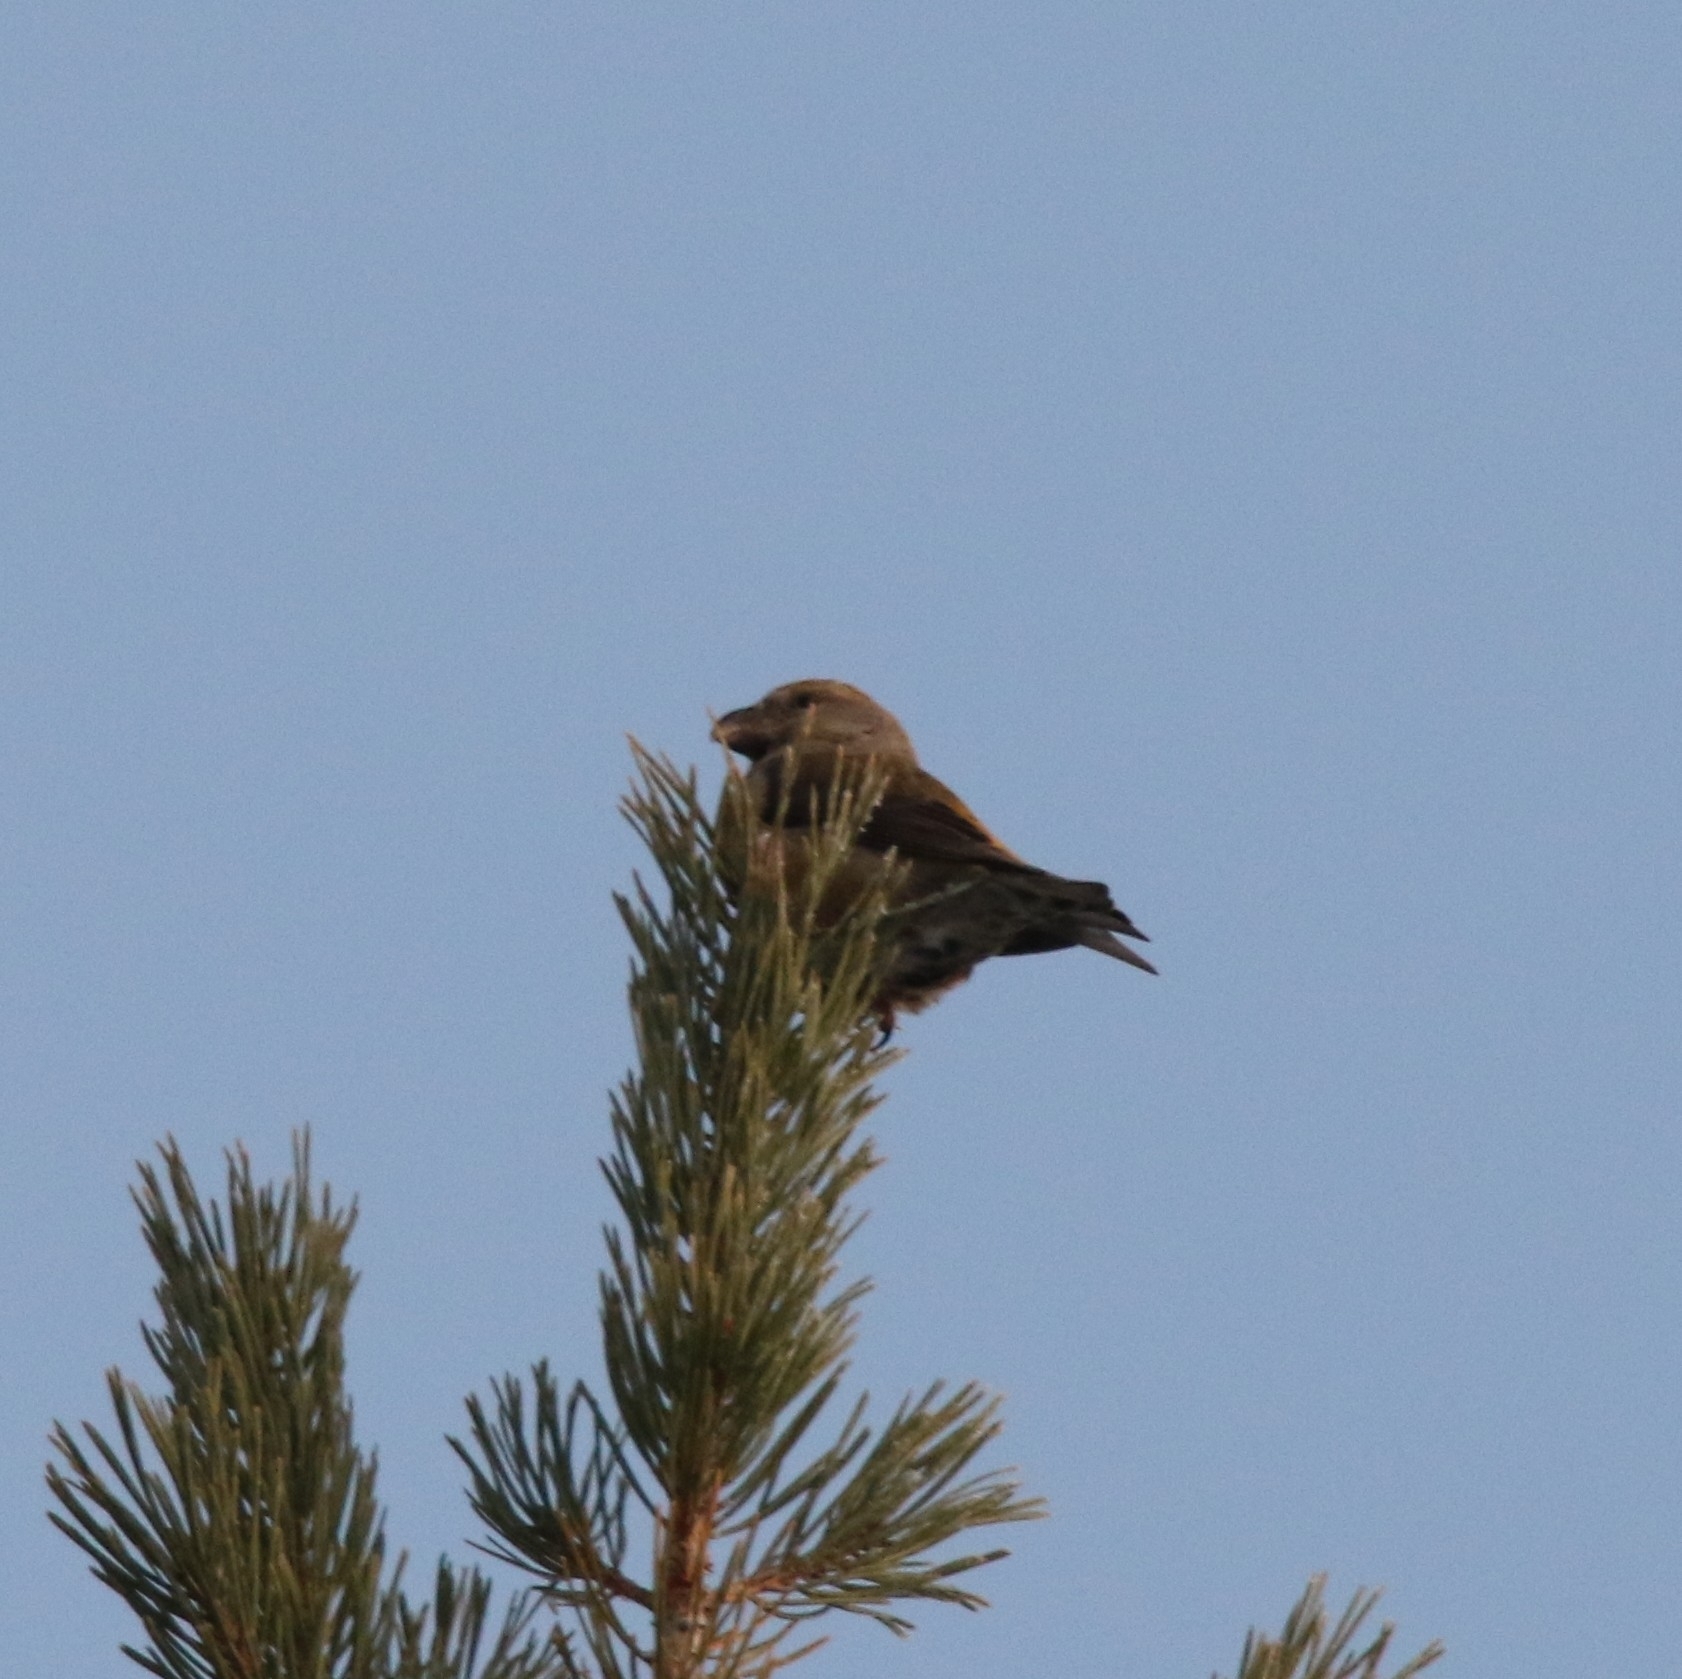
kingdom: Animalia
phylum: Chordata
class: Aves
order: Passeriformes
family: Fringillidae
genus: Loxia
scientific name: Loxia curvirostra
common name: Red crossbill
